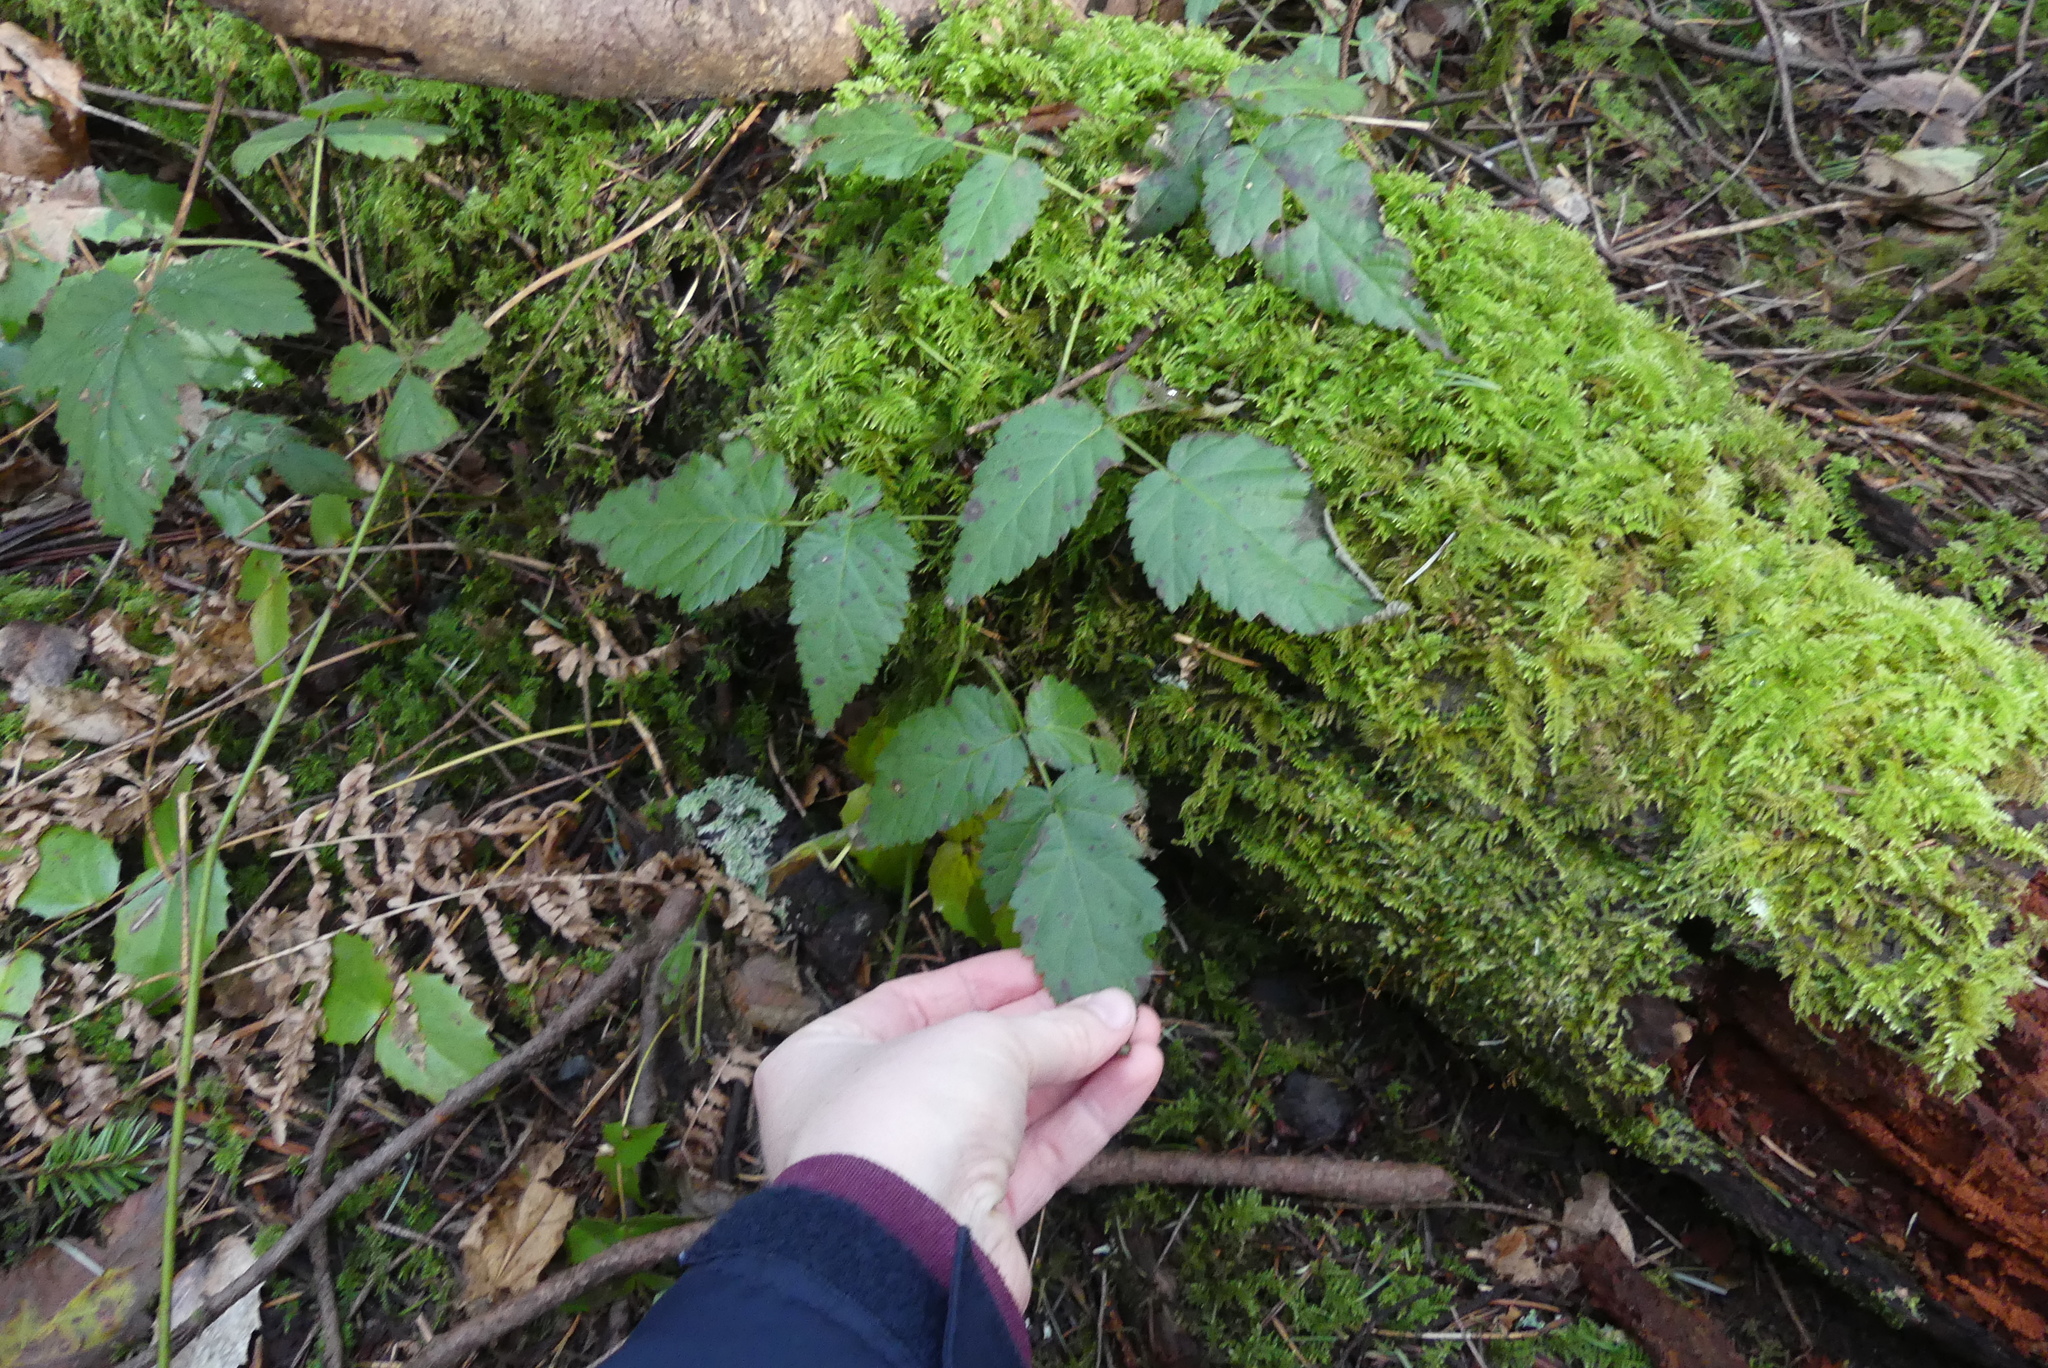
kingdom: Plantae
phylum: Tracheophyta
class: Magnoliopsida
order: Rosales
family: Rosaceae
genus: Rubus
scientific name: Rubus ursinus
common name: Pacific blackberry
